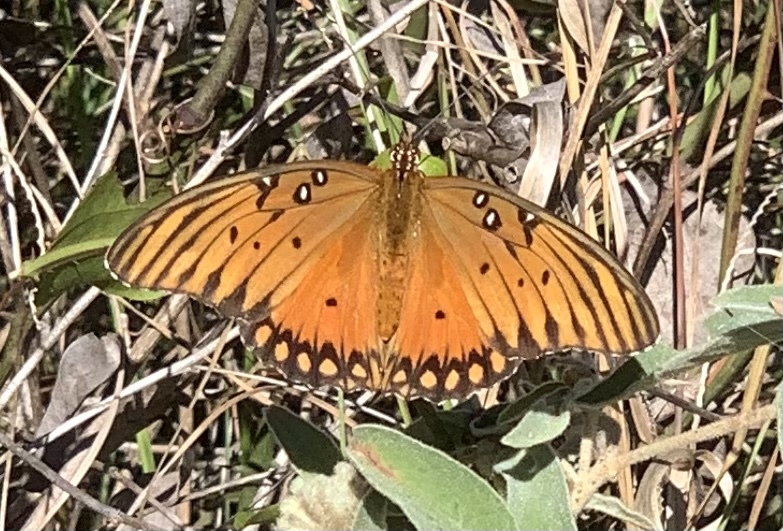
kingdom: Animalia
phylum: Arthropoda
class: Insecta
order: Lepidoptera
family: Nymphalidae
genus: Dione
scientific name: Dione vanillae
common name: Gulf fritillary
